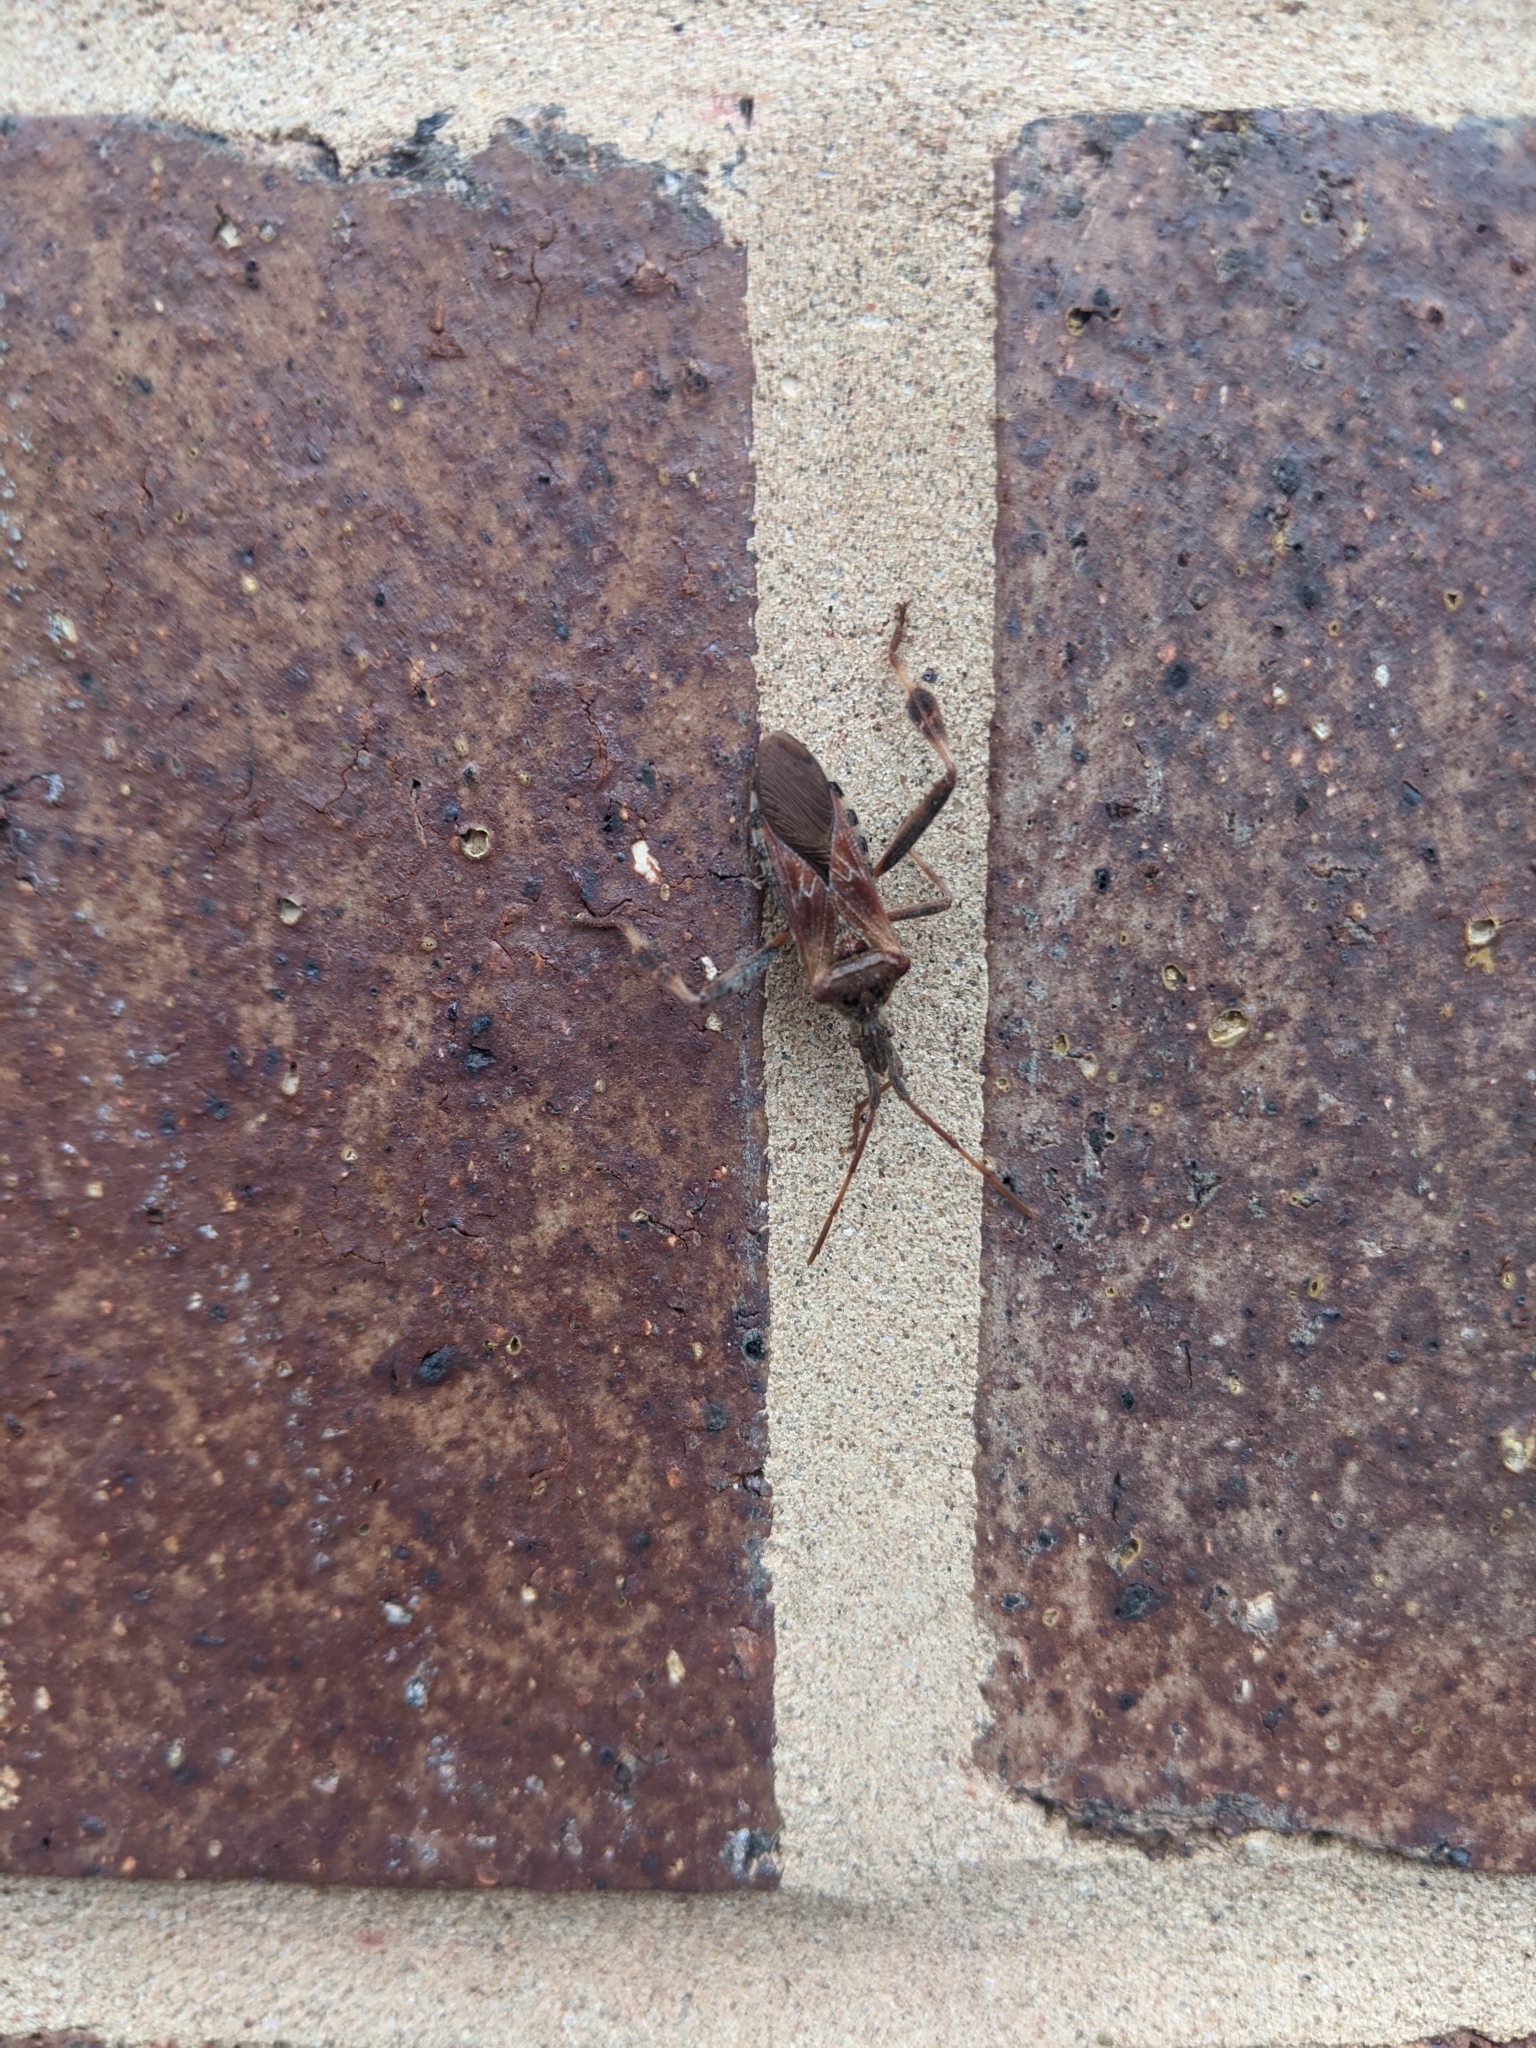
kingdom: Animalia
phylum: Arthropoda
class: Insecta
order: Hemiptera
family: Coreidae
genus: Leptoglossus
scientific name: Leptoglossus occidentalis
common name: Western conifer-seed bug
